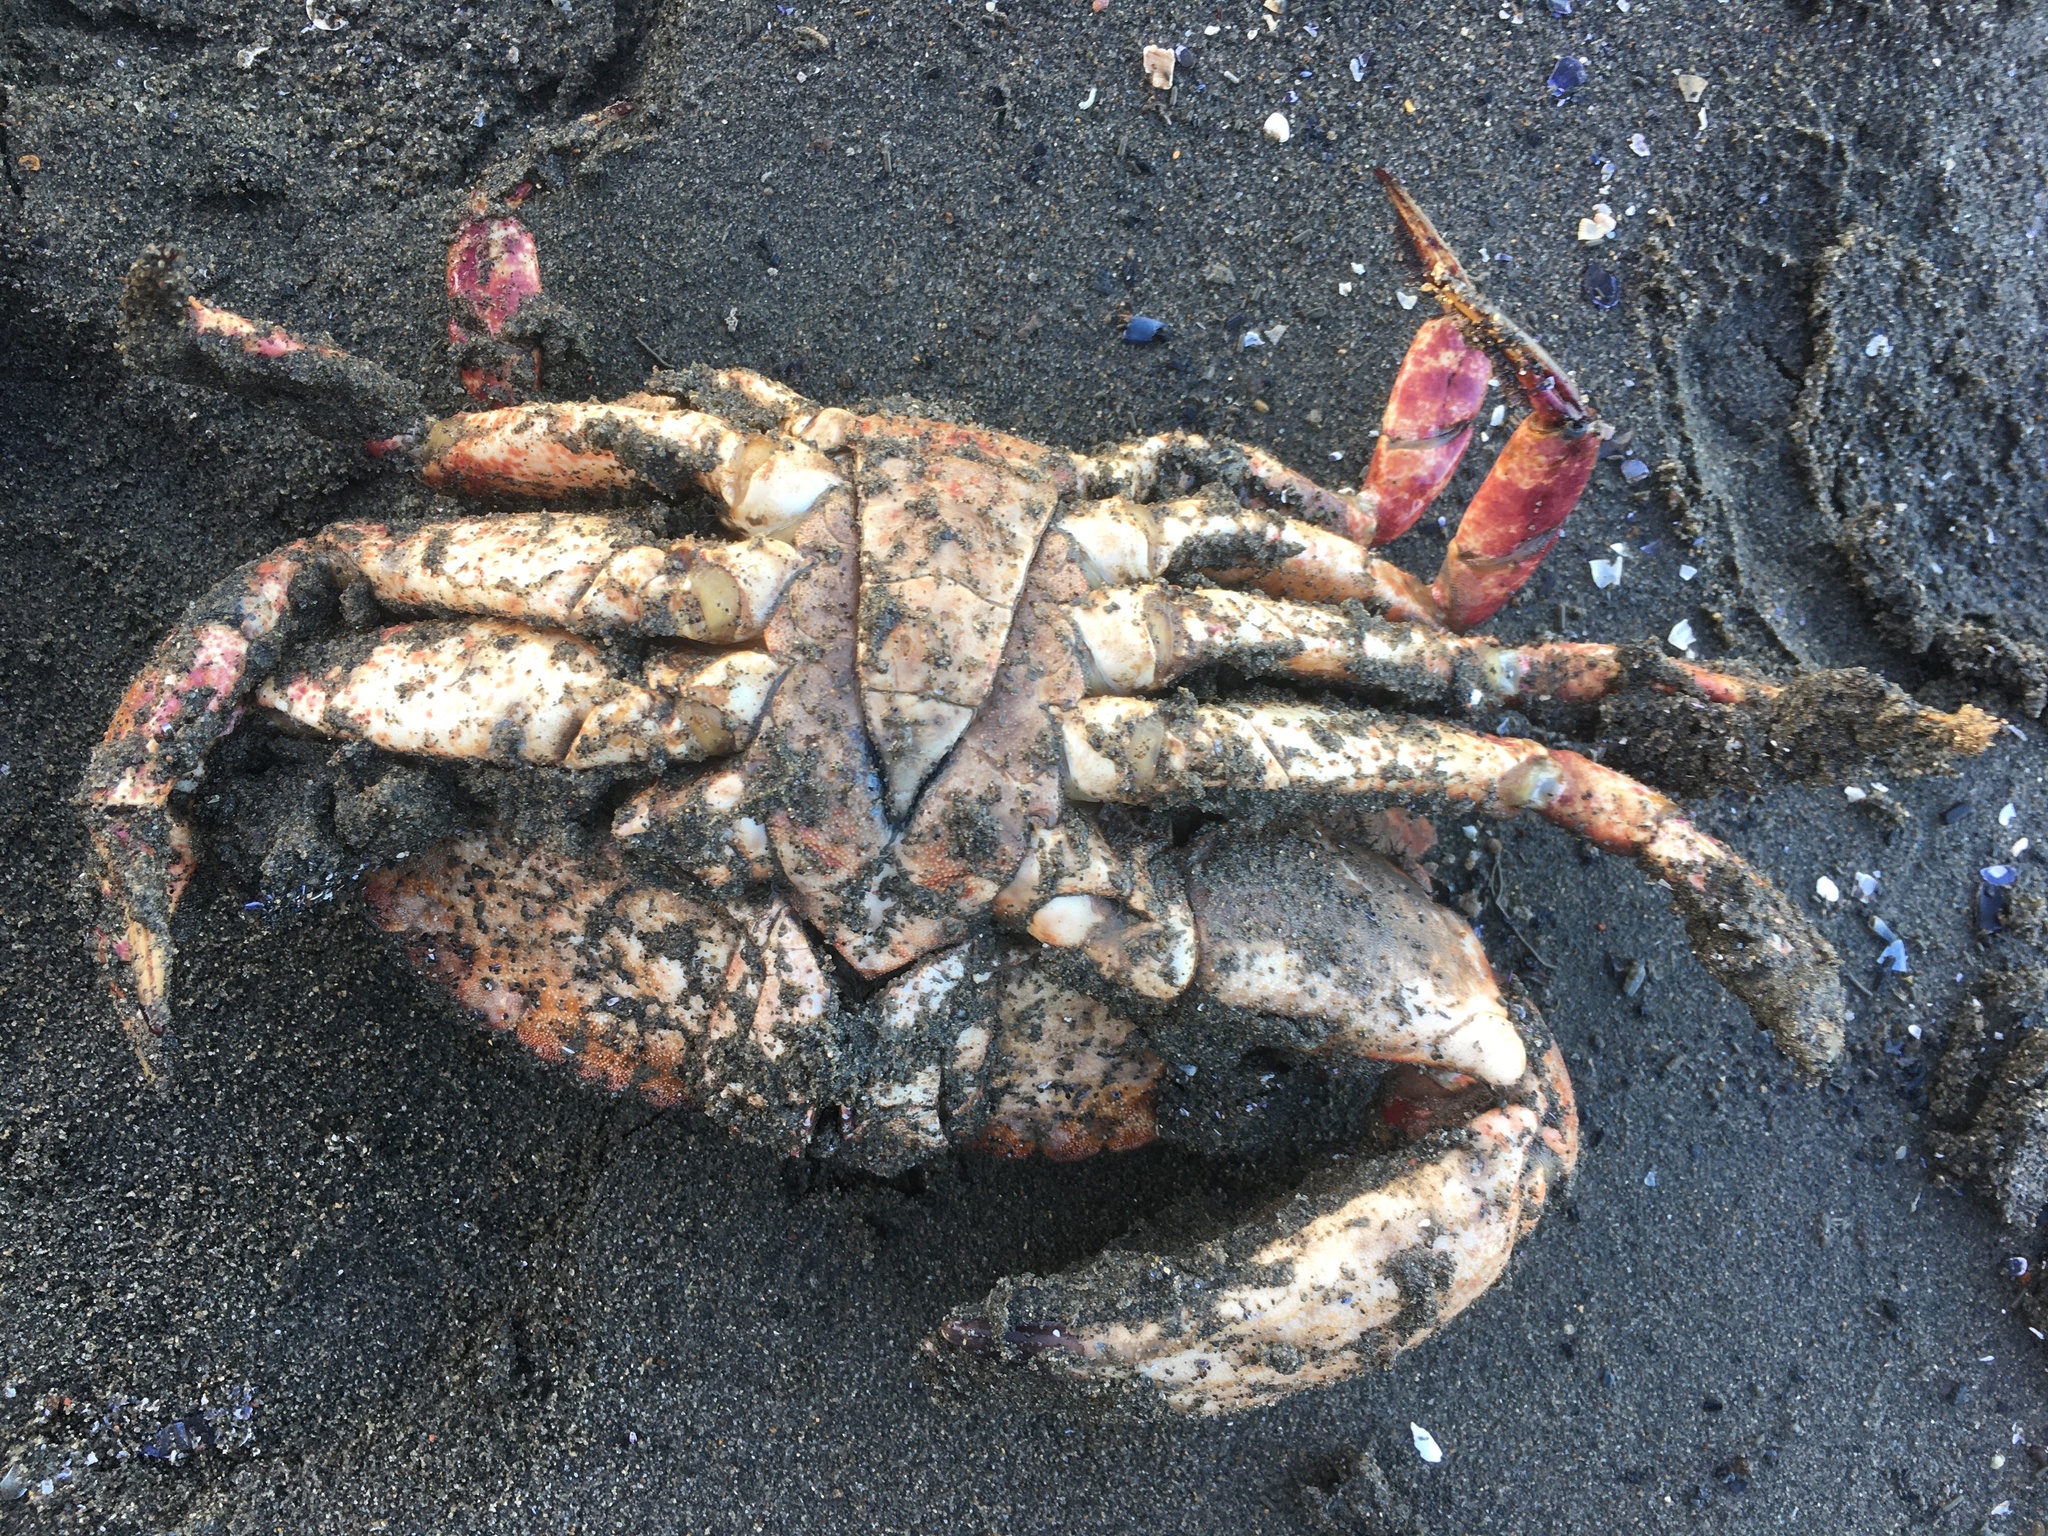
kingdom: Animalia
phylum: Arthropoda
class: Malacostraca
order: Decapoda
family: Cancridae
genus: Cancer
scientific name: Cancer productus
